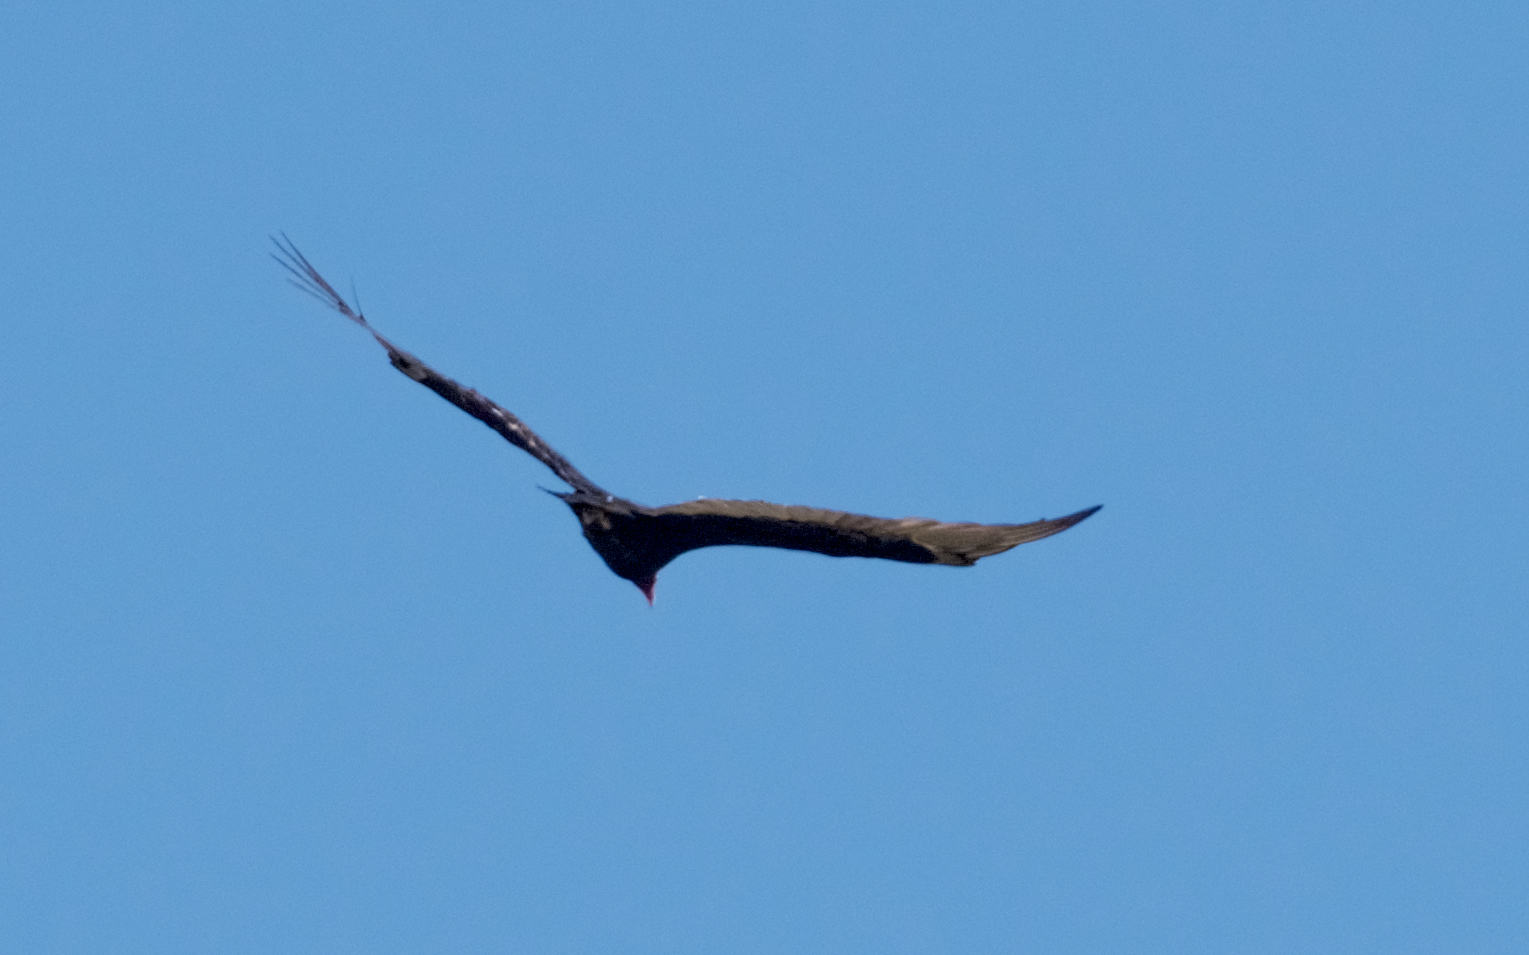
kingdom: Animalia
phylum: Chordata
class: Aves
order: Accipitriformes
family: Cathartidae
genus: Cathartes
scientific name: Cathartes aura
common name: Turkey vulture
